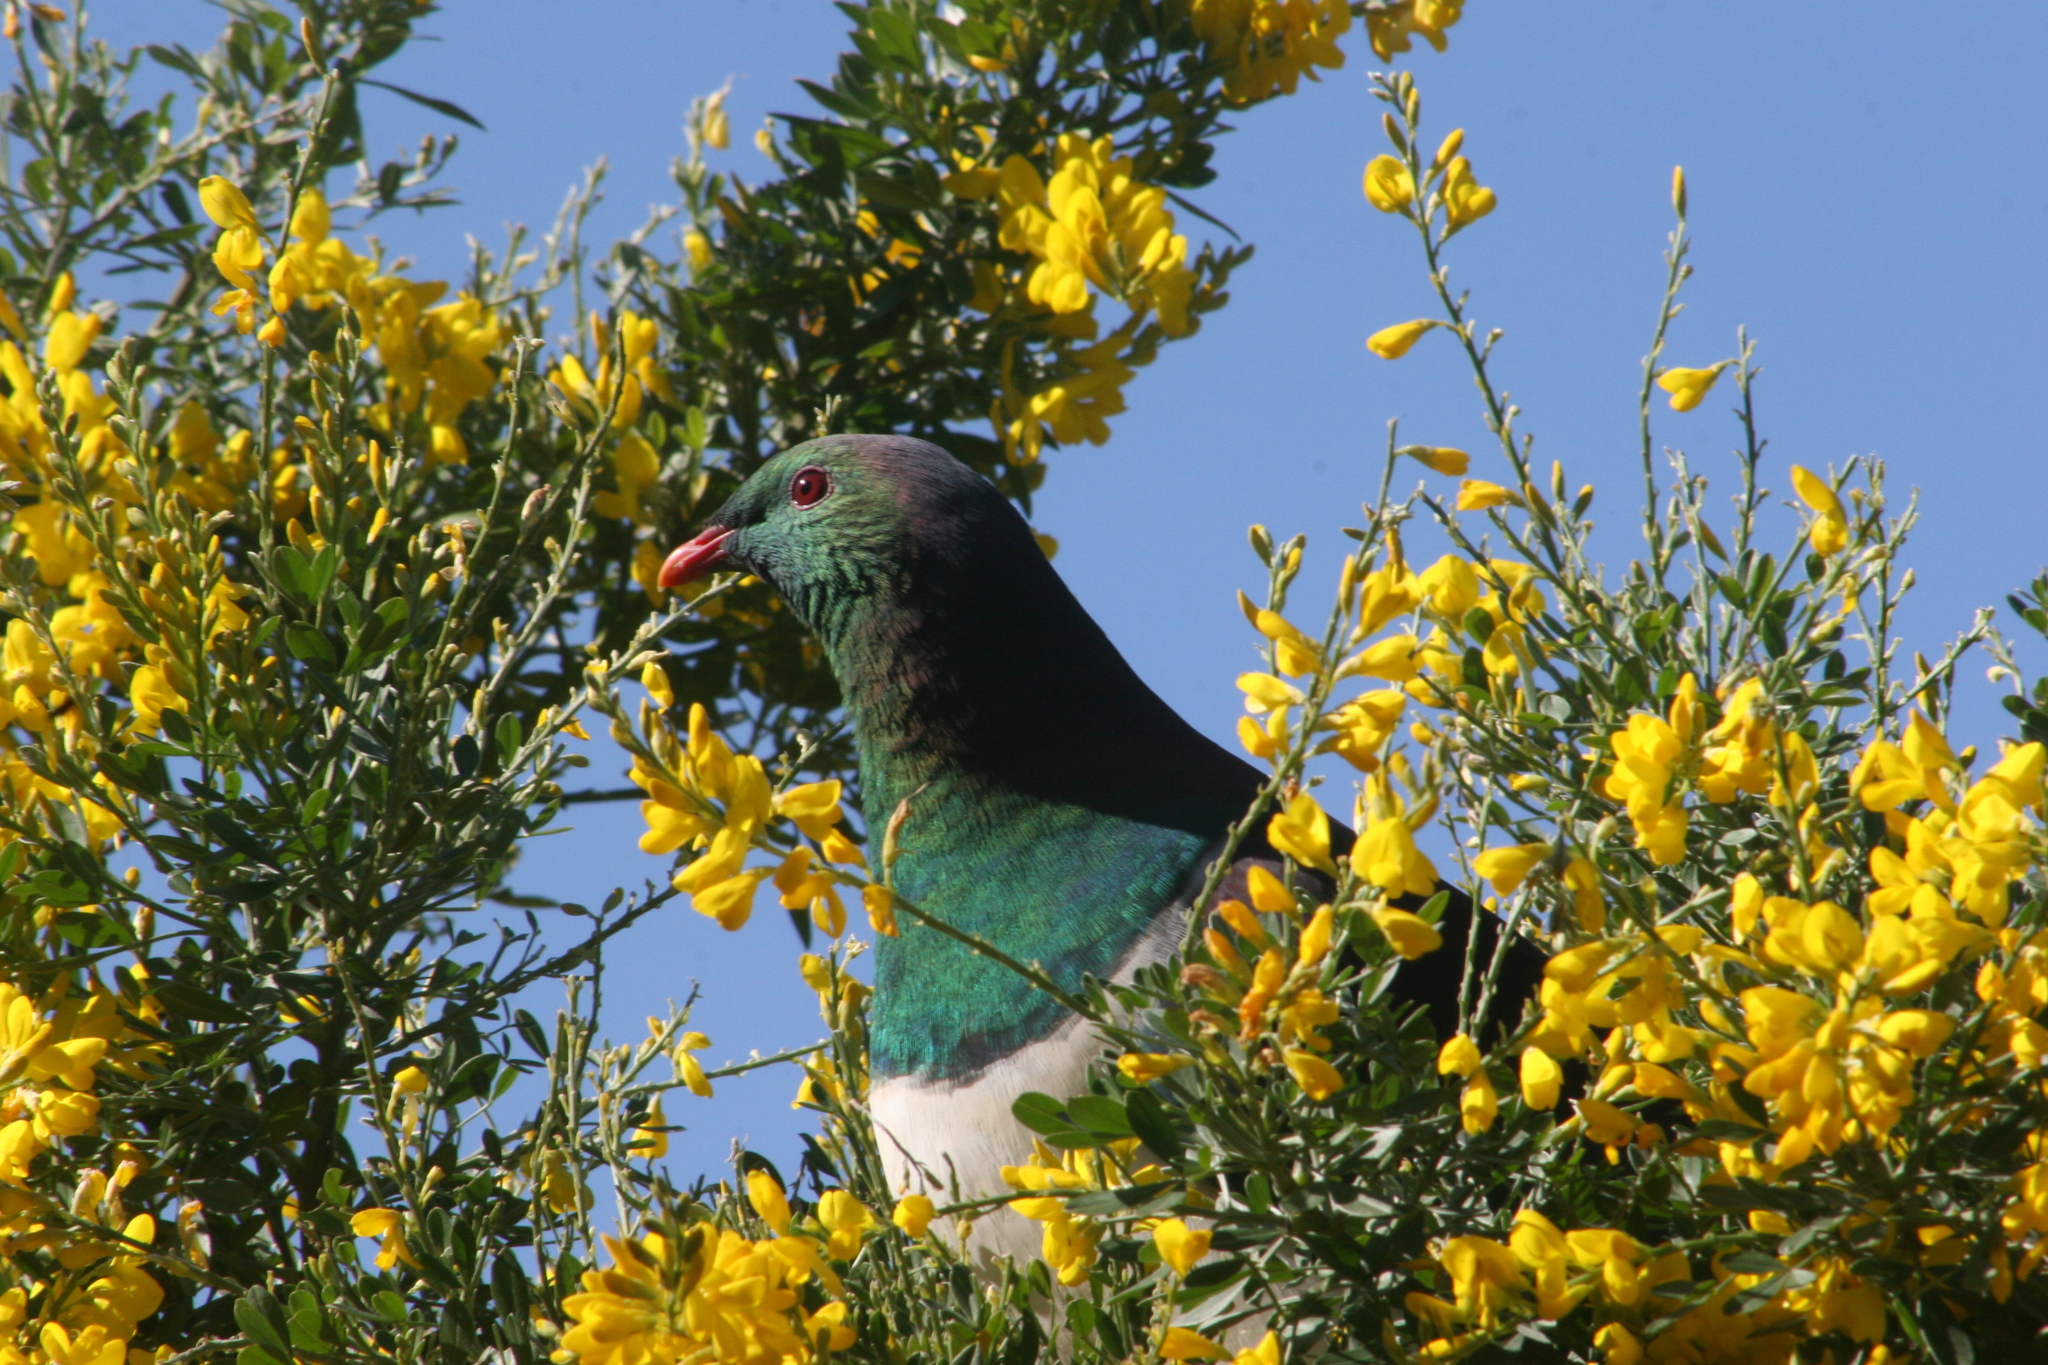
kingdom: Animalia
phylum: Chordata
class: Aves
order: Columbiformes
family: Columbidae
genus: Hemiphaga
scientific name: Hemiphaga novaeseelandiae
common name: New zealand pigeon
